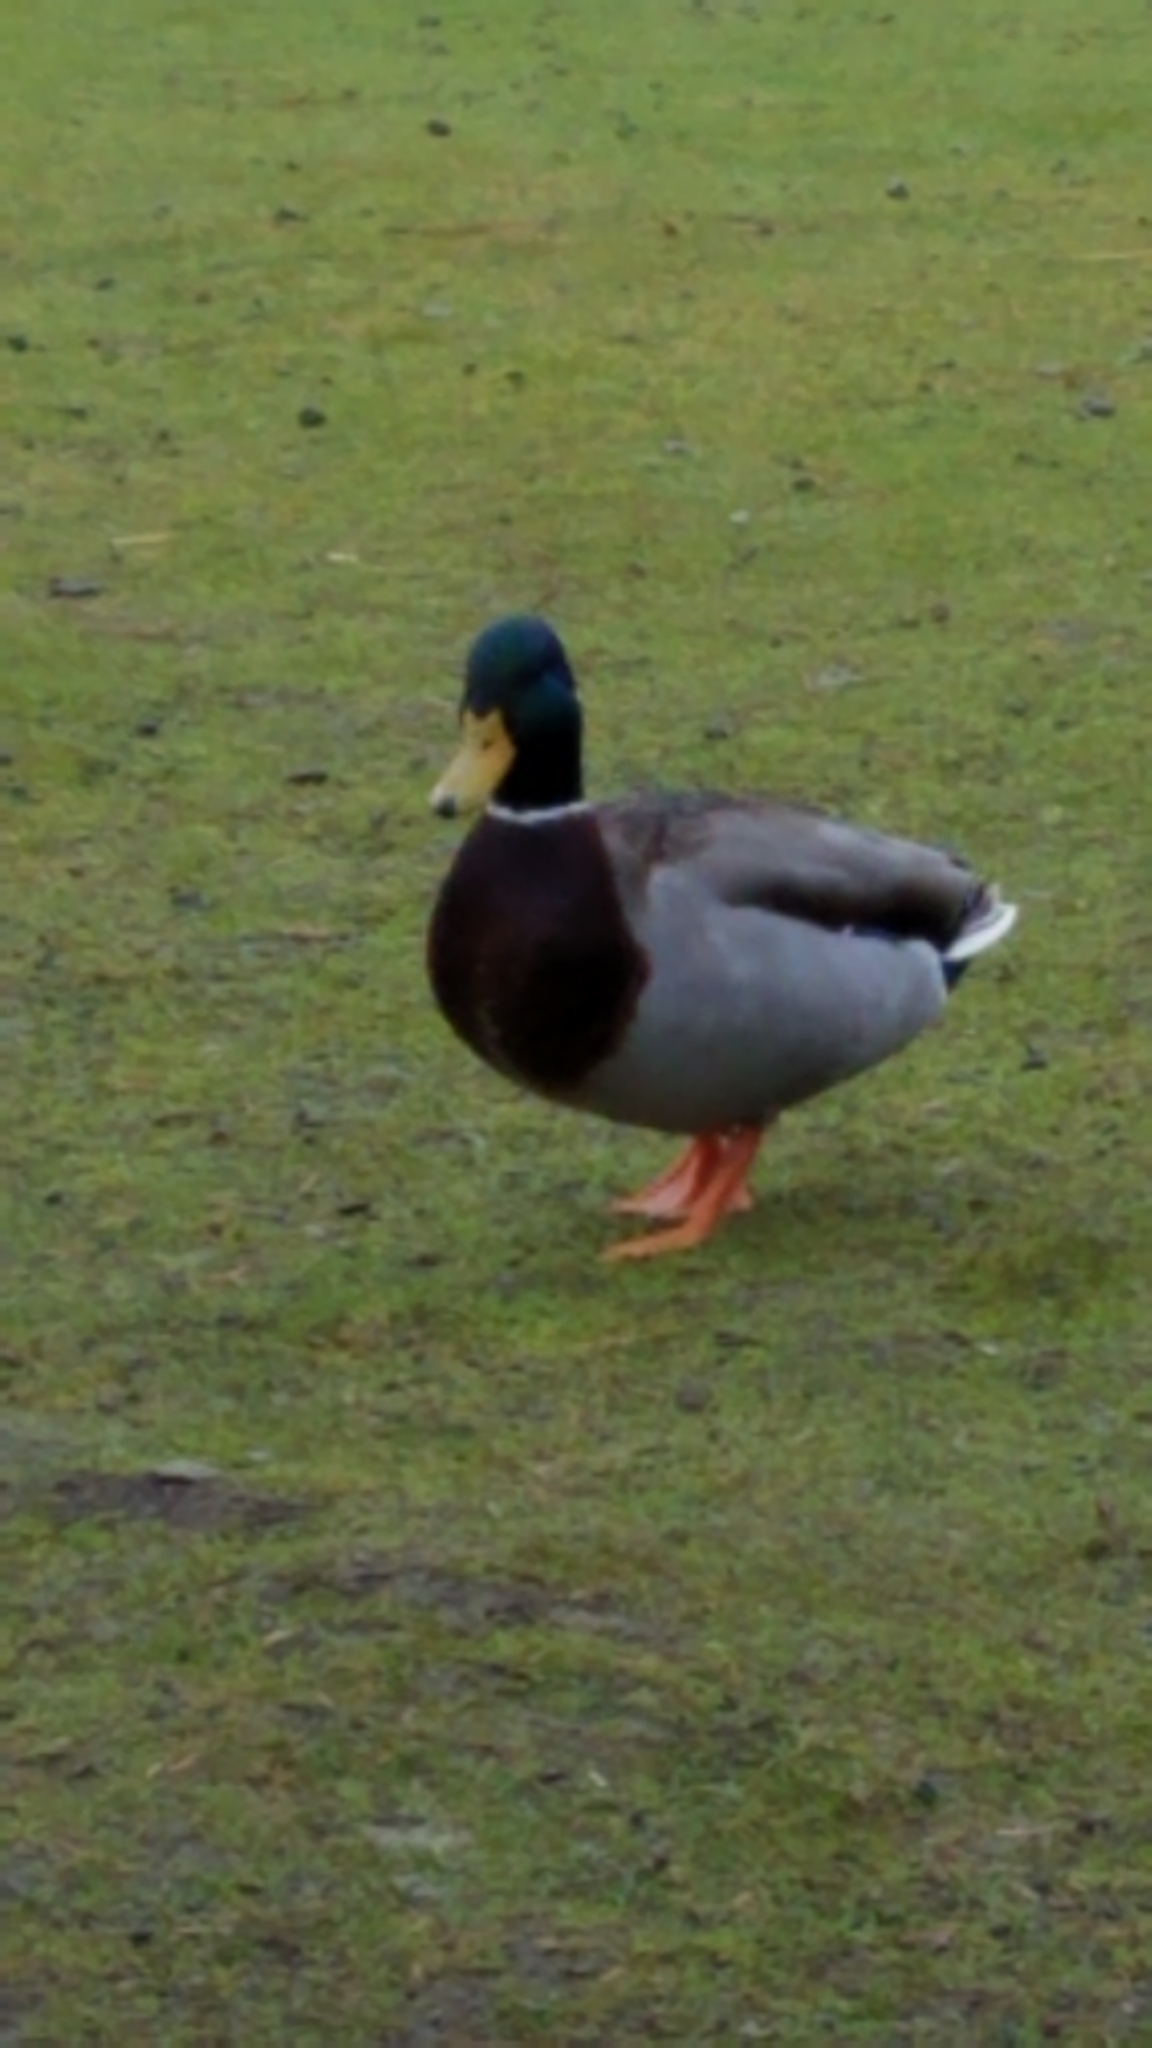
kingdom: Animalia
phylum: Chordata
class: Aves
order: Anseriformes
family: Anatidae
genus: Anas
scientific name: Anas platyrhynchos
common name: Mallard
